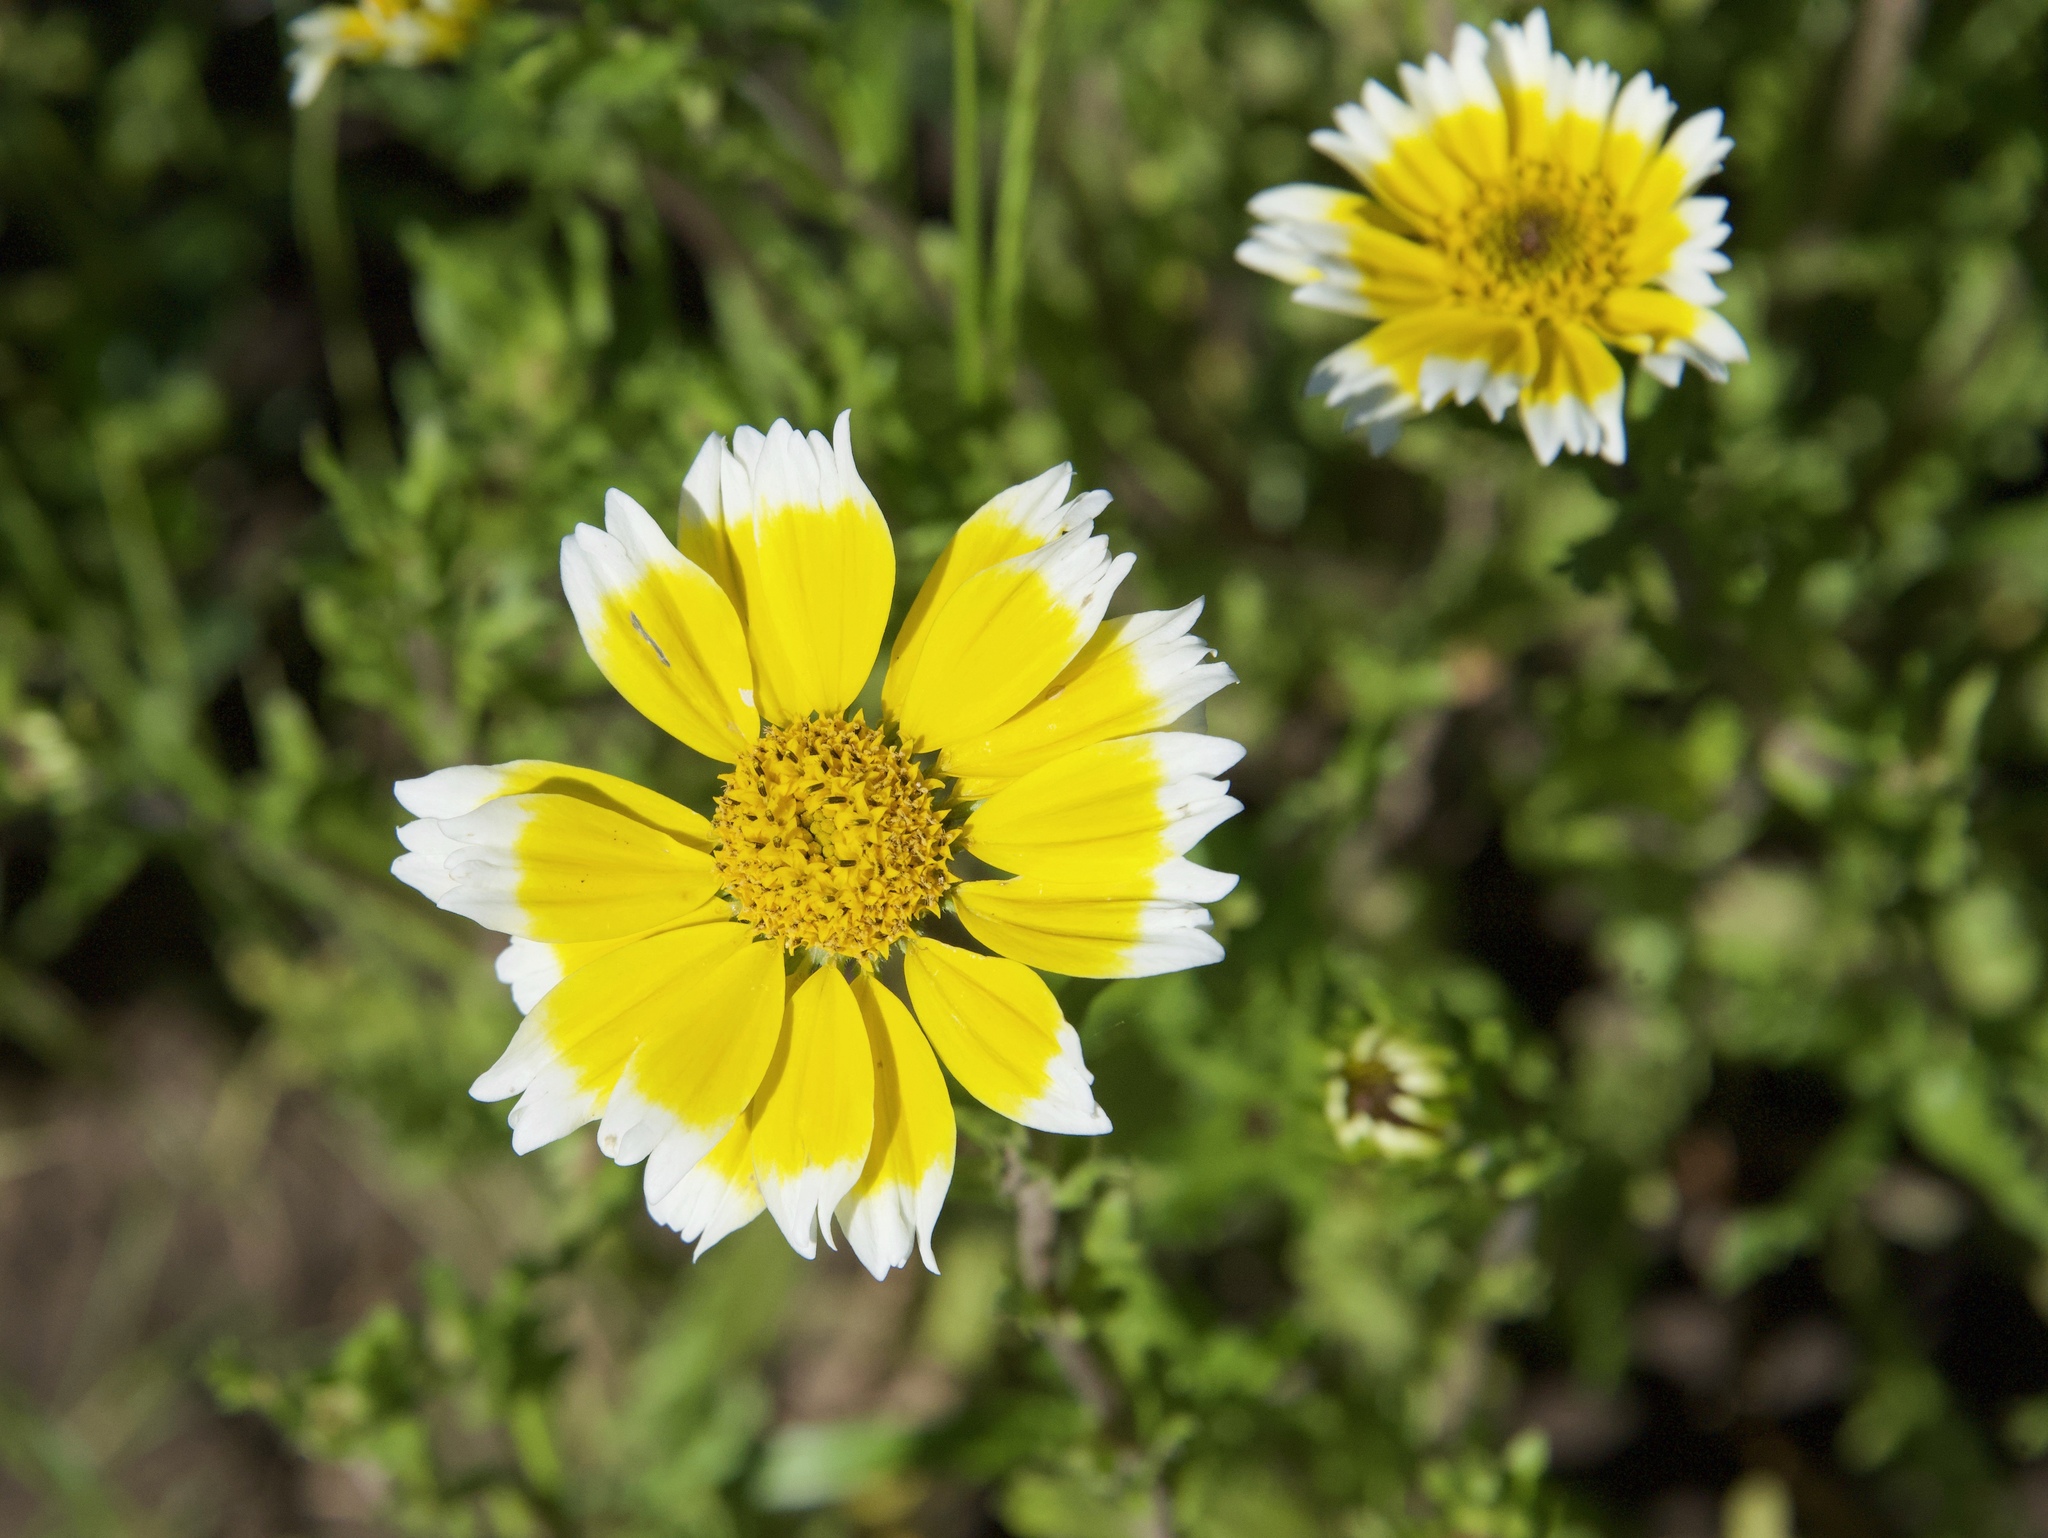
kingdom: Plantae
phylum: Tracheophyta
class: Magnoliopsida
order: Asterales
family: Asteraceae
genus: Layia
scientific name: Layia chrysanthemoides
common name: Smooth layia
